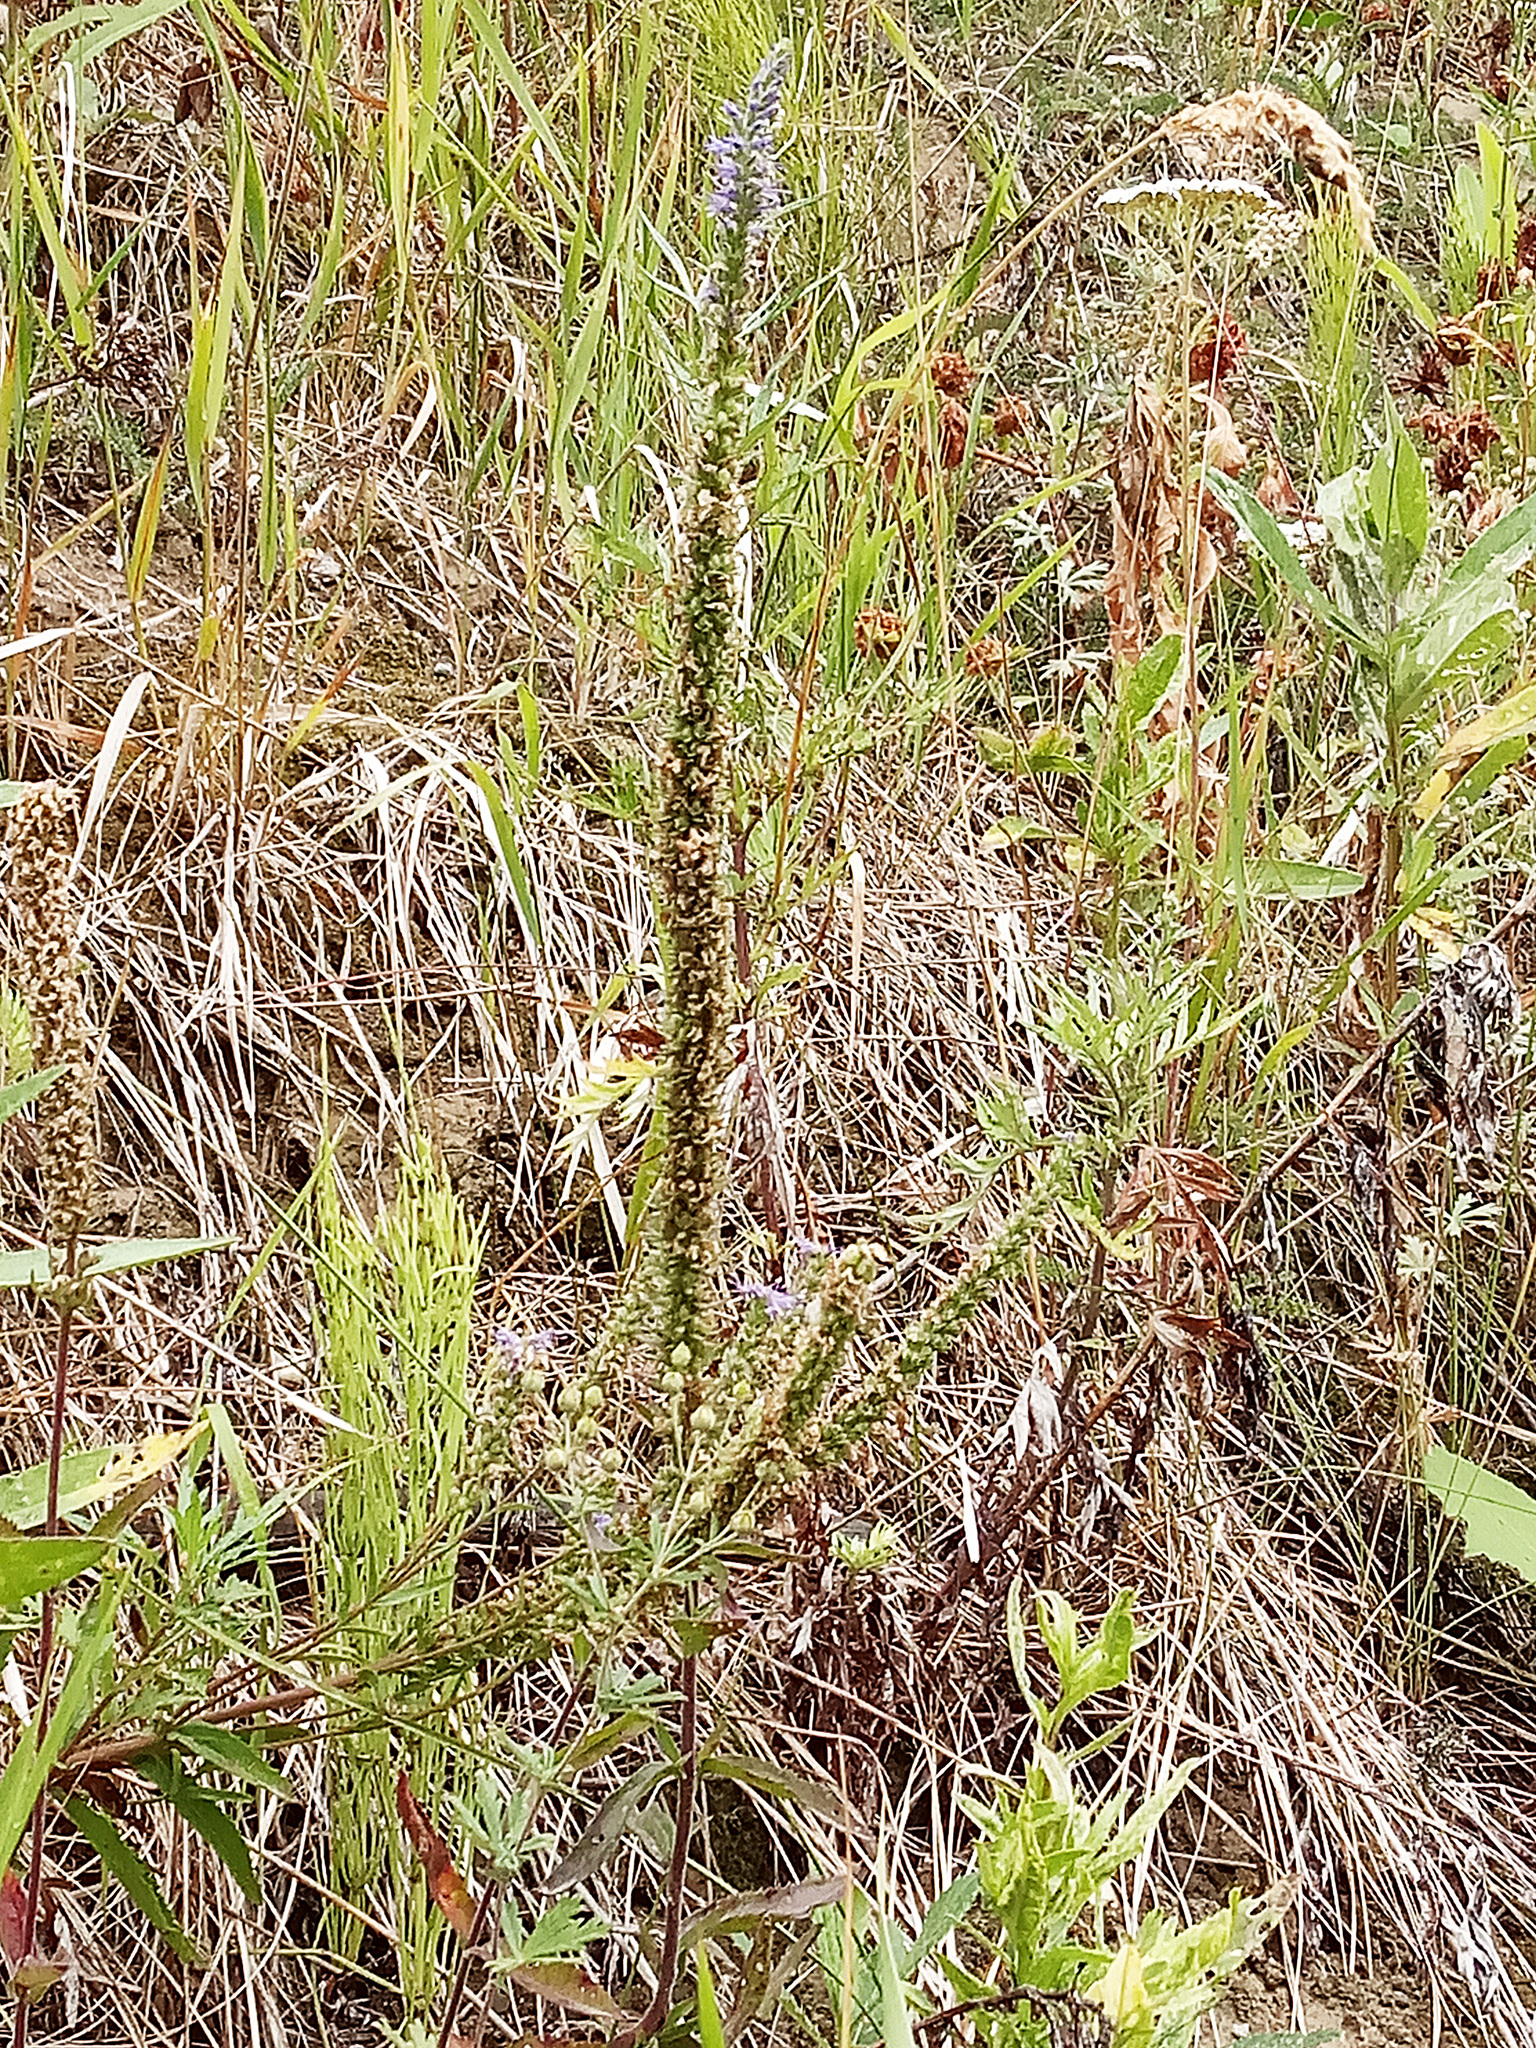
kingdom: Plantae
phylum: Tracheophyta
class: Magnoliopsida
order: Lamiales
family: Plantaginaceae
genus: Veronica
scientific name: Veronica spicata
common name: Spiked speedwell
